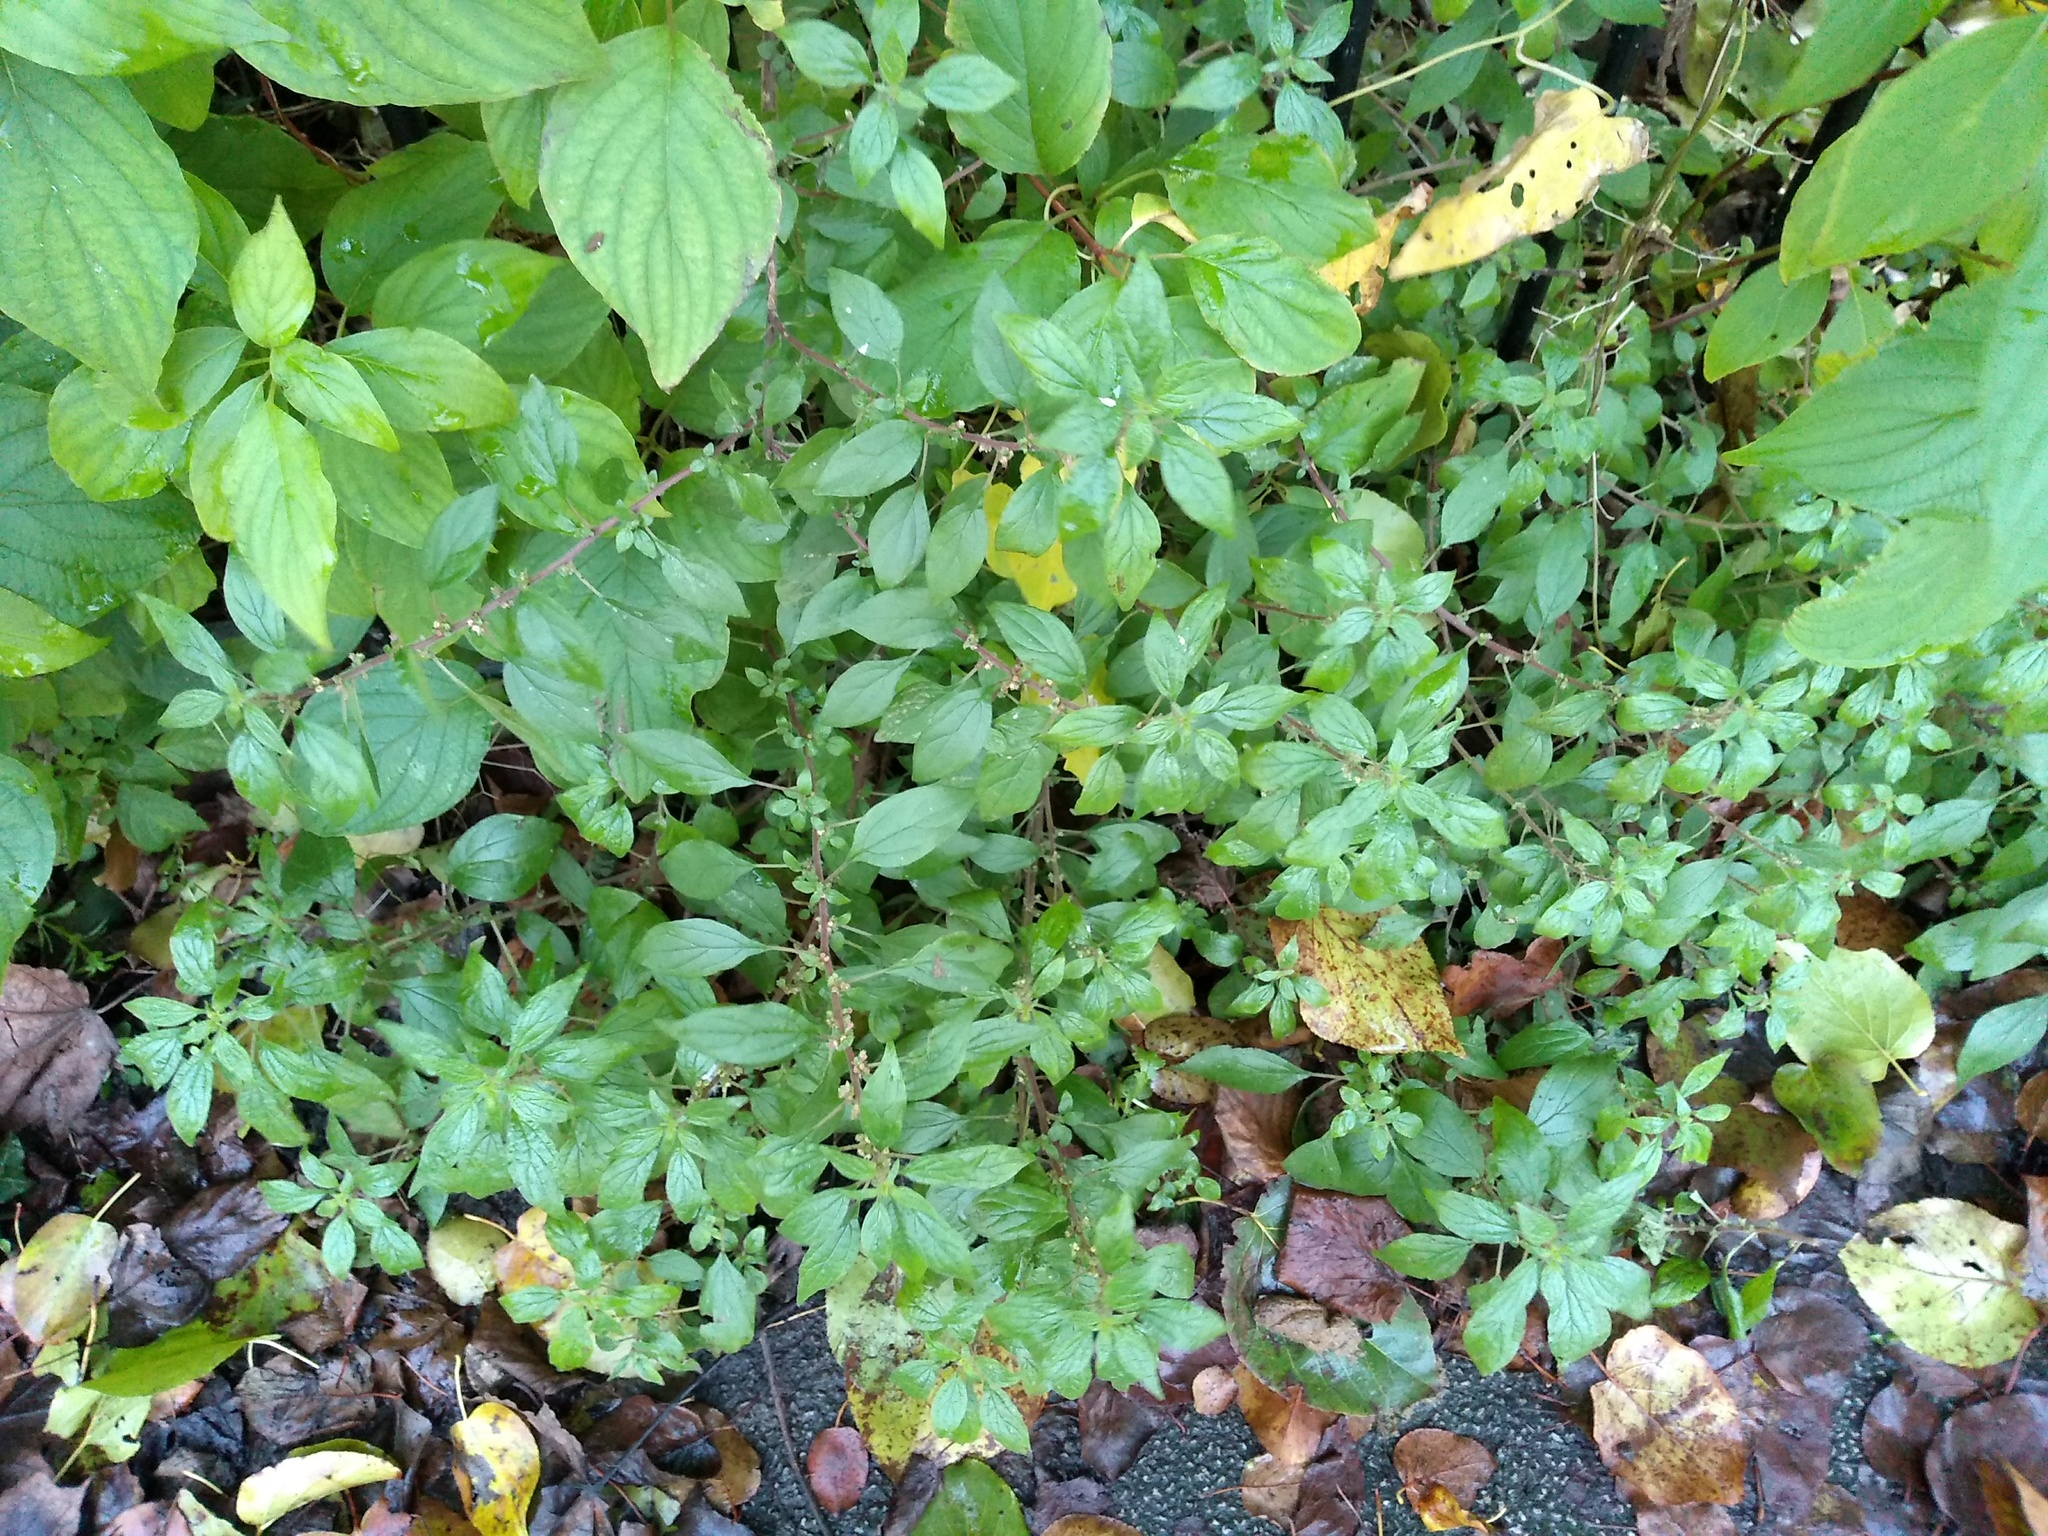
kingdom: Plantae
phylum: Tracheophyta
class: Magnoliopsida
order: Rosales
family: Urticaceae
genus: Parietaria
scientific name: Parietaria judaica
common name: Pellitory-of-the-wall
